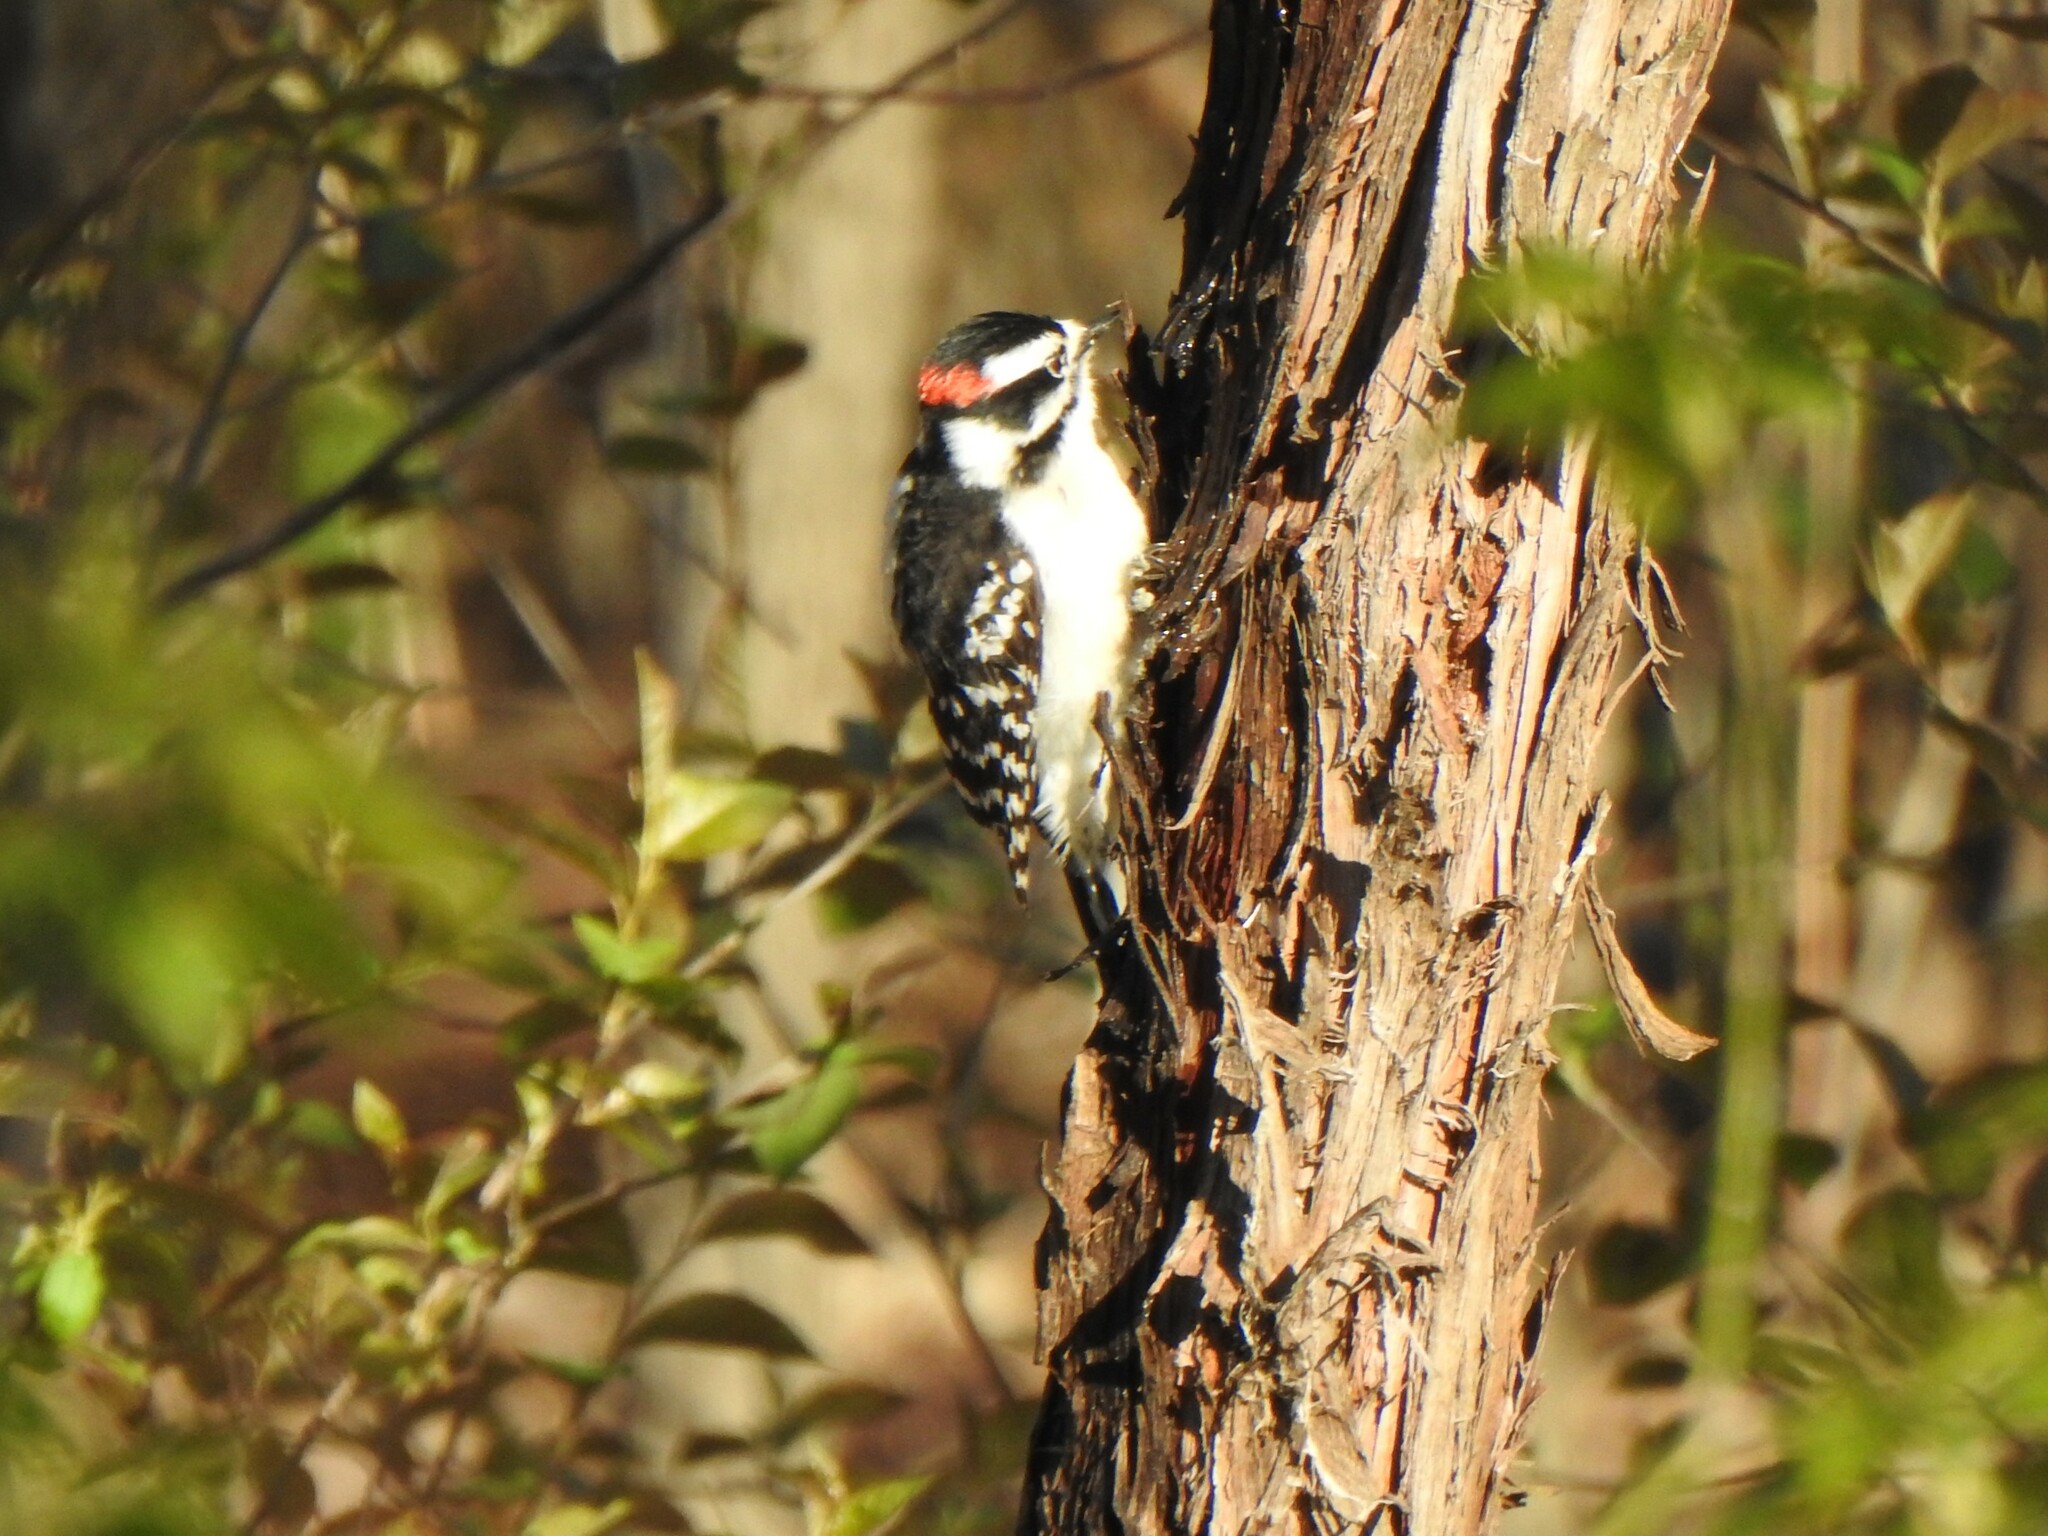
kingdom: Animalia
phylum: Chordata
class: Aves
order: Piciformes
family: Picidae
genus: Dryobates
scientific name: Dryobates pubescens
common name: Downy woodpecker
